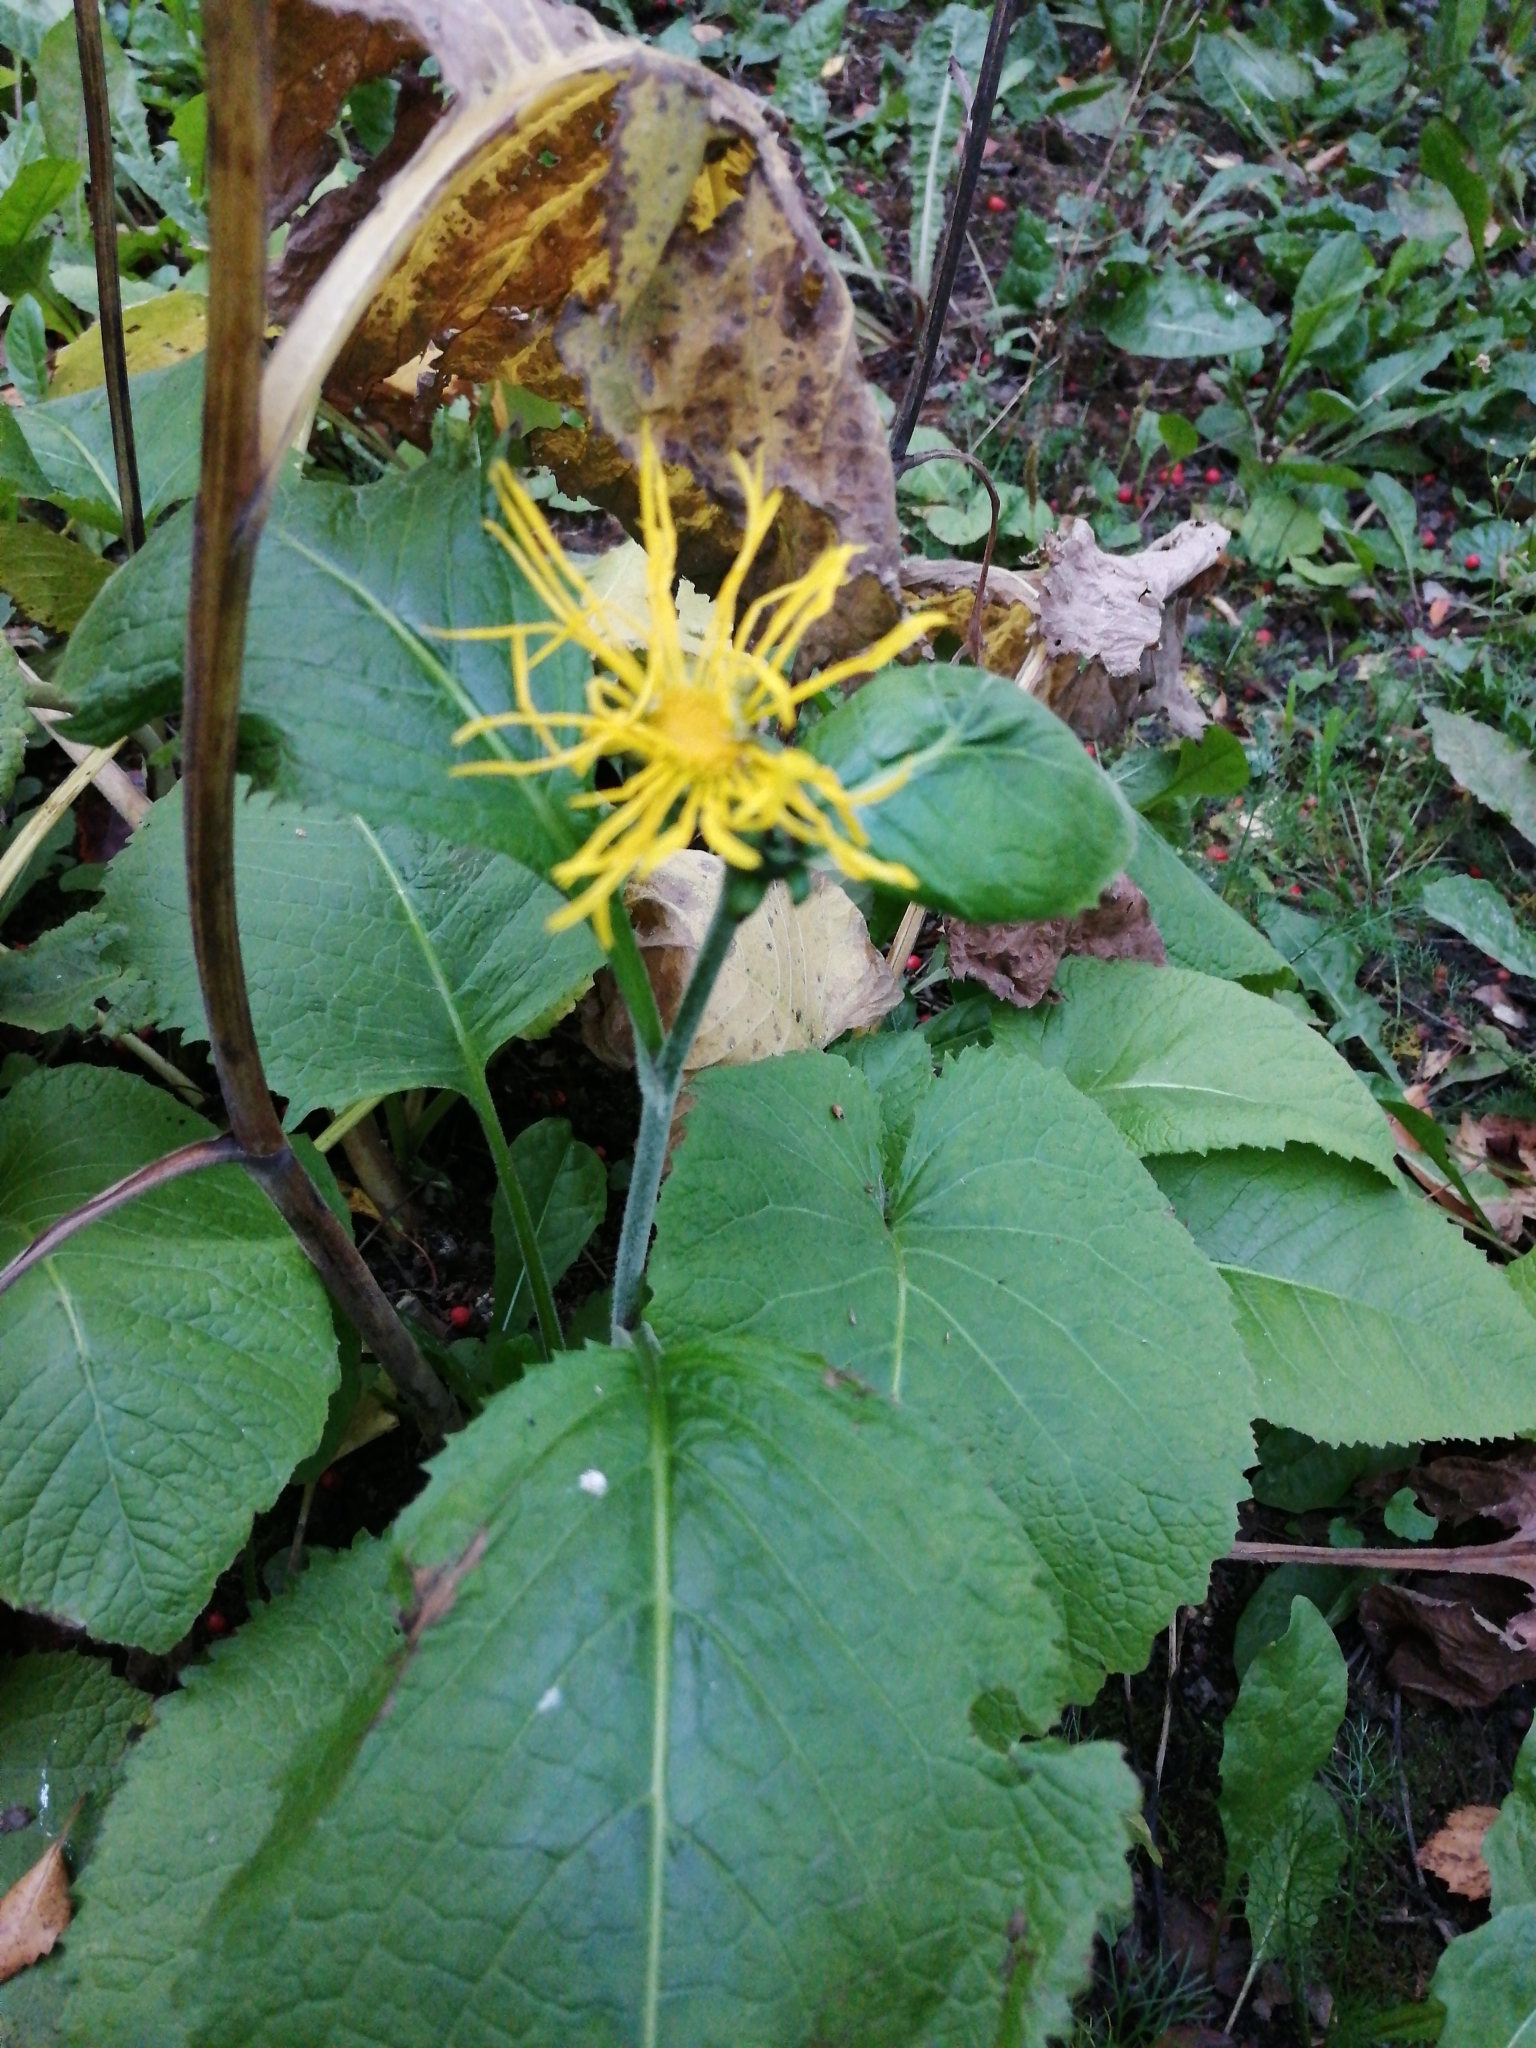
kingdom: Plantae
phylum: Tracheophyta
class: Magnoliopsida
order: Asterales
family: Asteraceae
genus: Telekia
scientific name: Telekia speciosa
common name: Yellow oxeye
